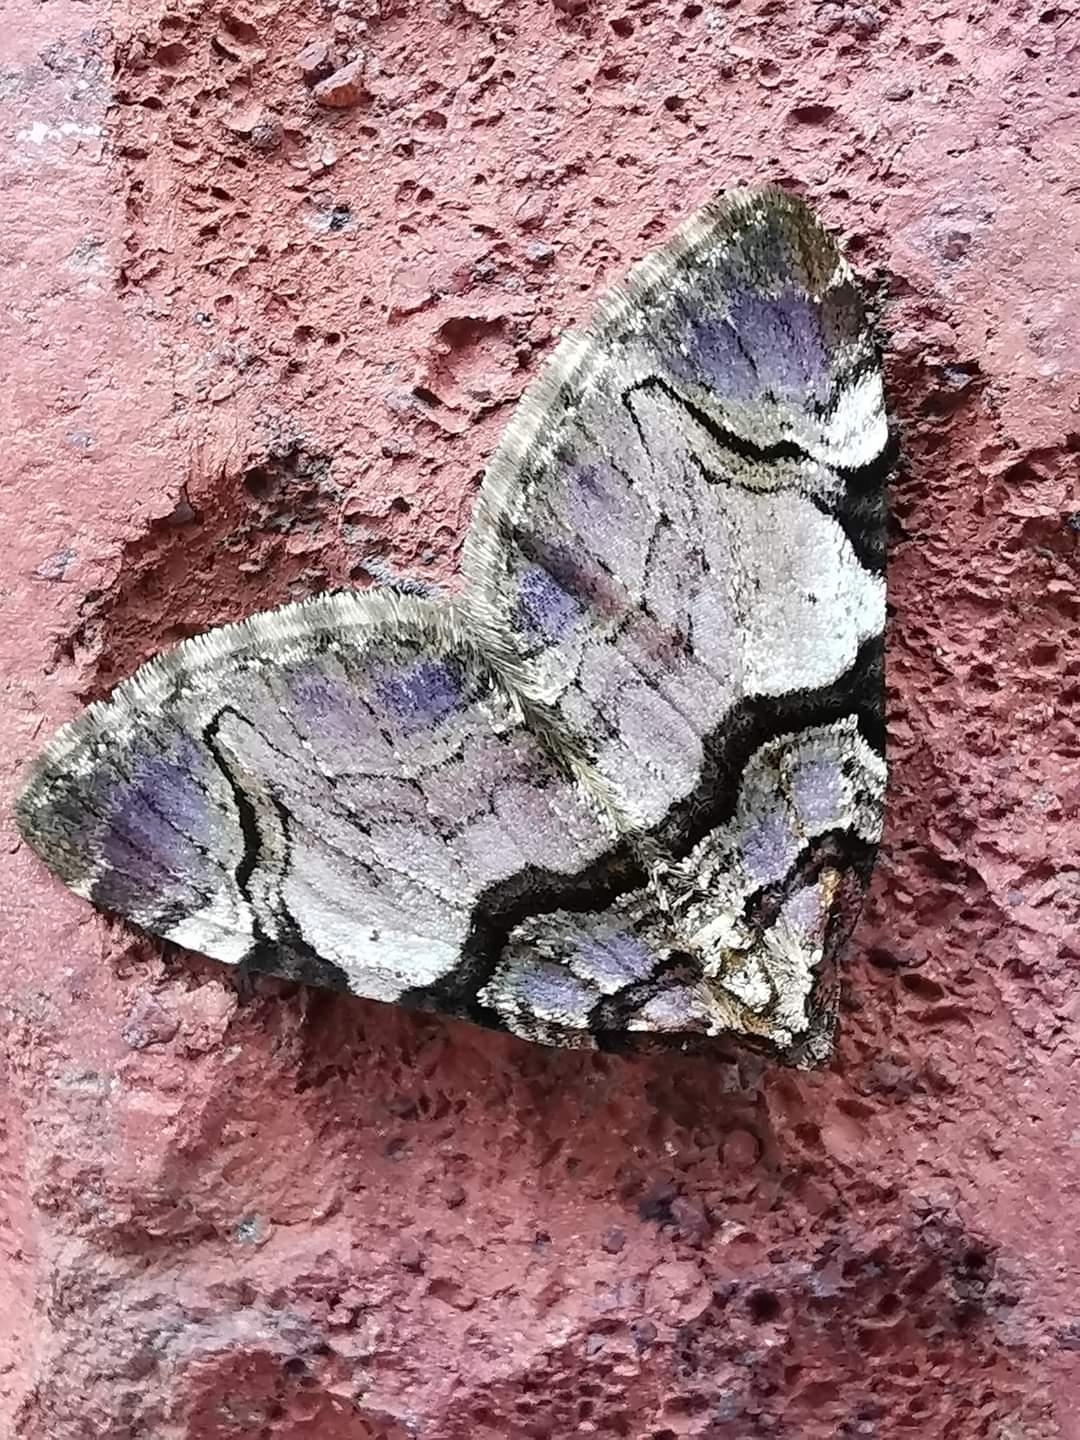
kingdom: Animalia
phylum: Arthropoda
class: Insecta
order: Lepidoptera
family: Geometridae
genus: Anticlea
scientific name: Anticlea derivata
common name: Streamer
